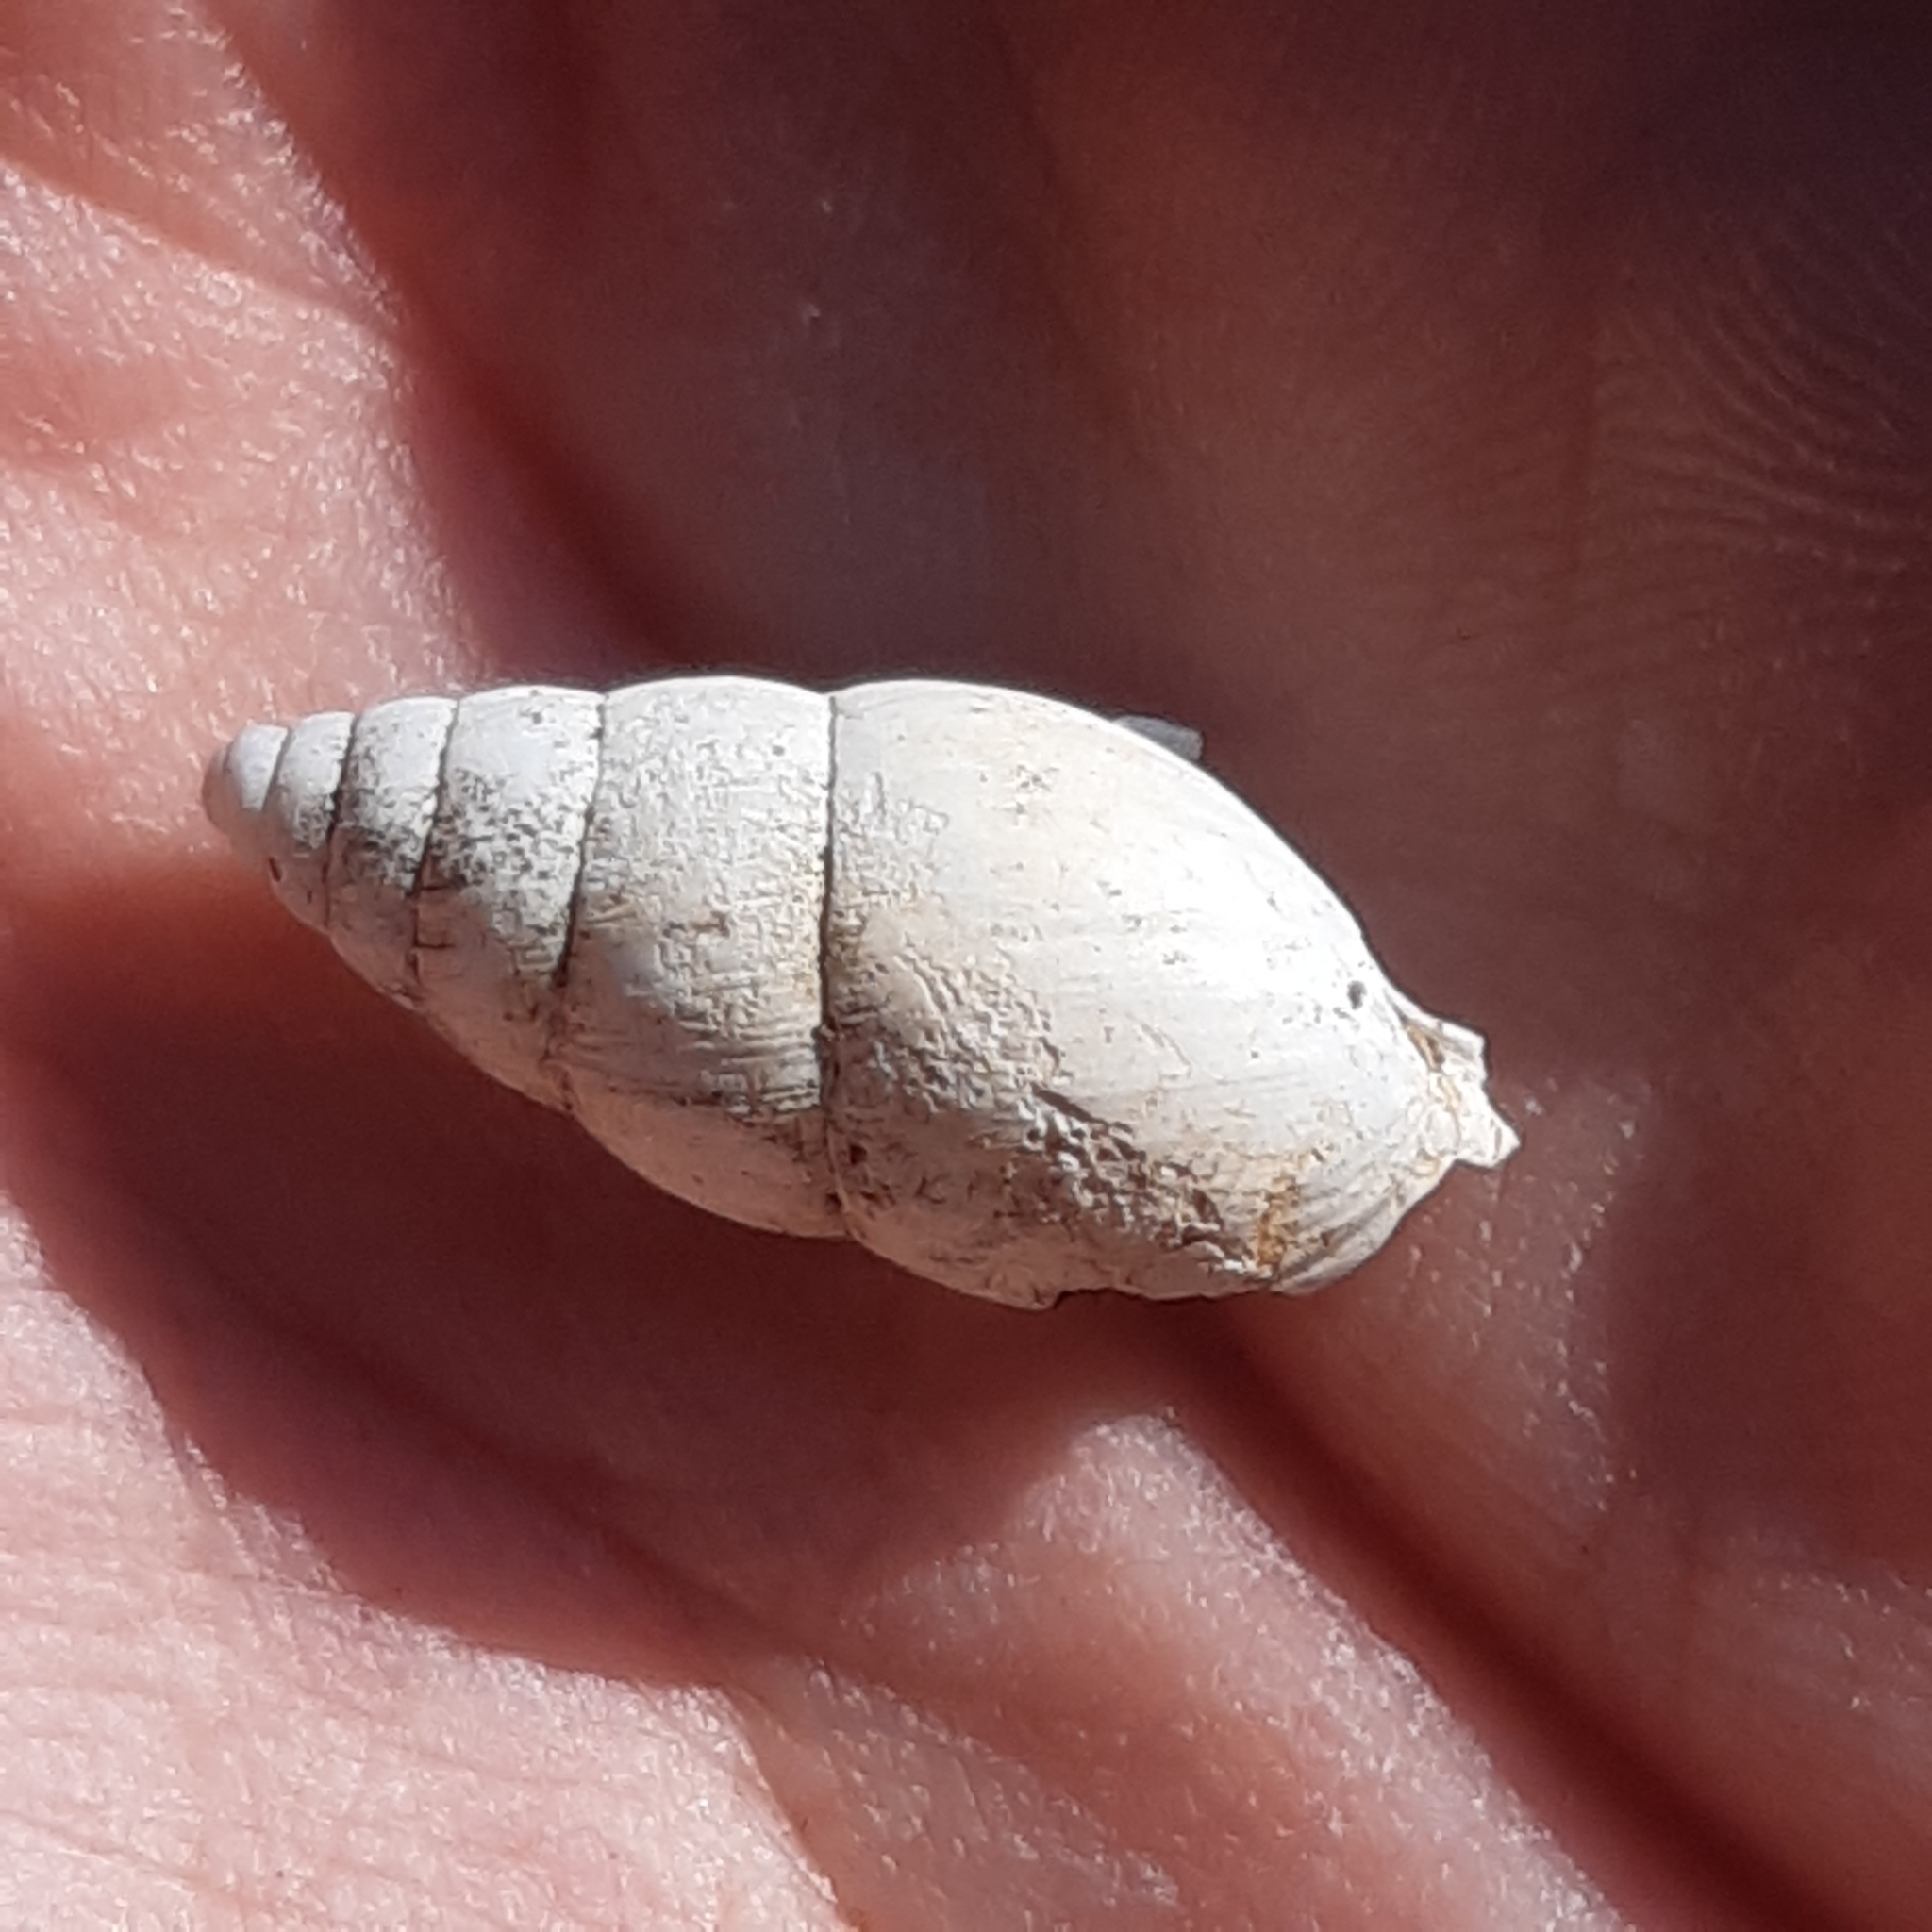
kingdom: Animalia
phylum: Mollusca
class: Gastropoda
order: Stylommatophora
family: Enidae
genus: Zebrina
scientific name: Zebrina detrita
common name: Large bulin
